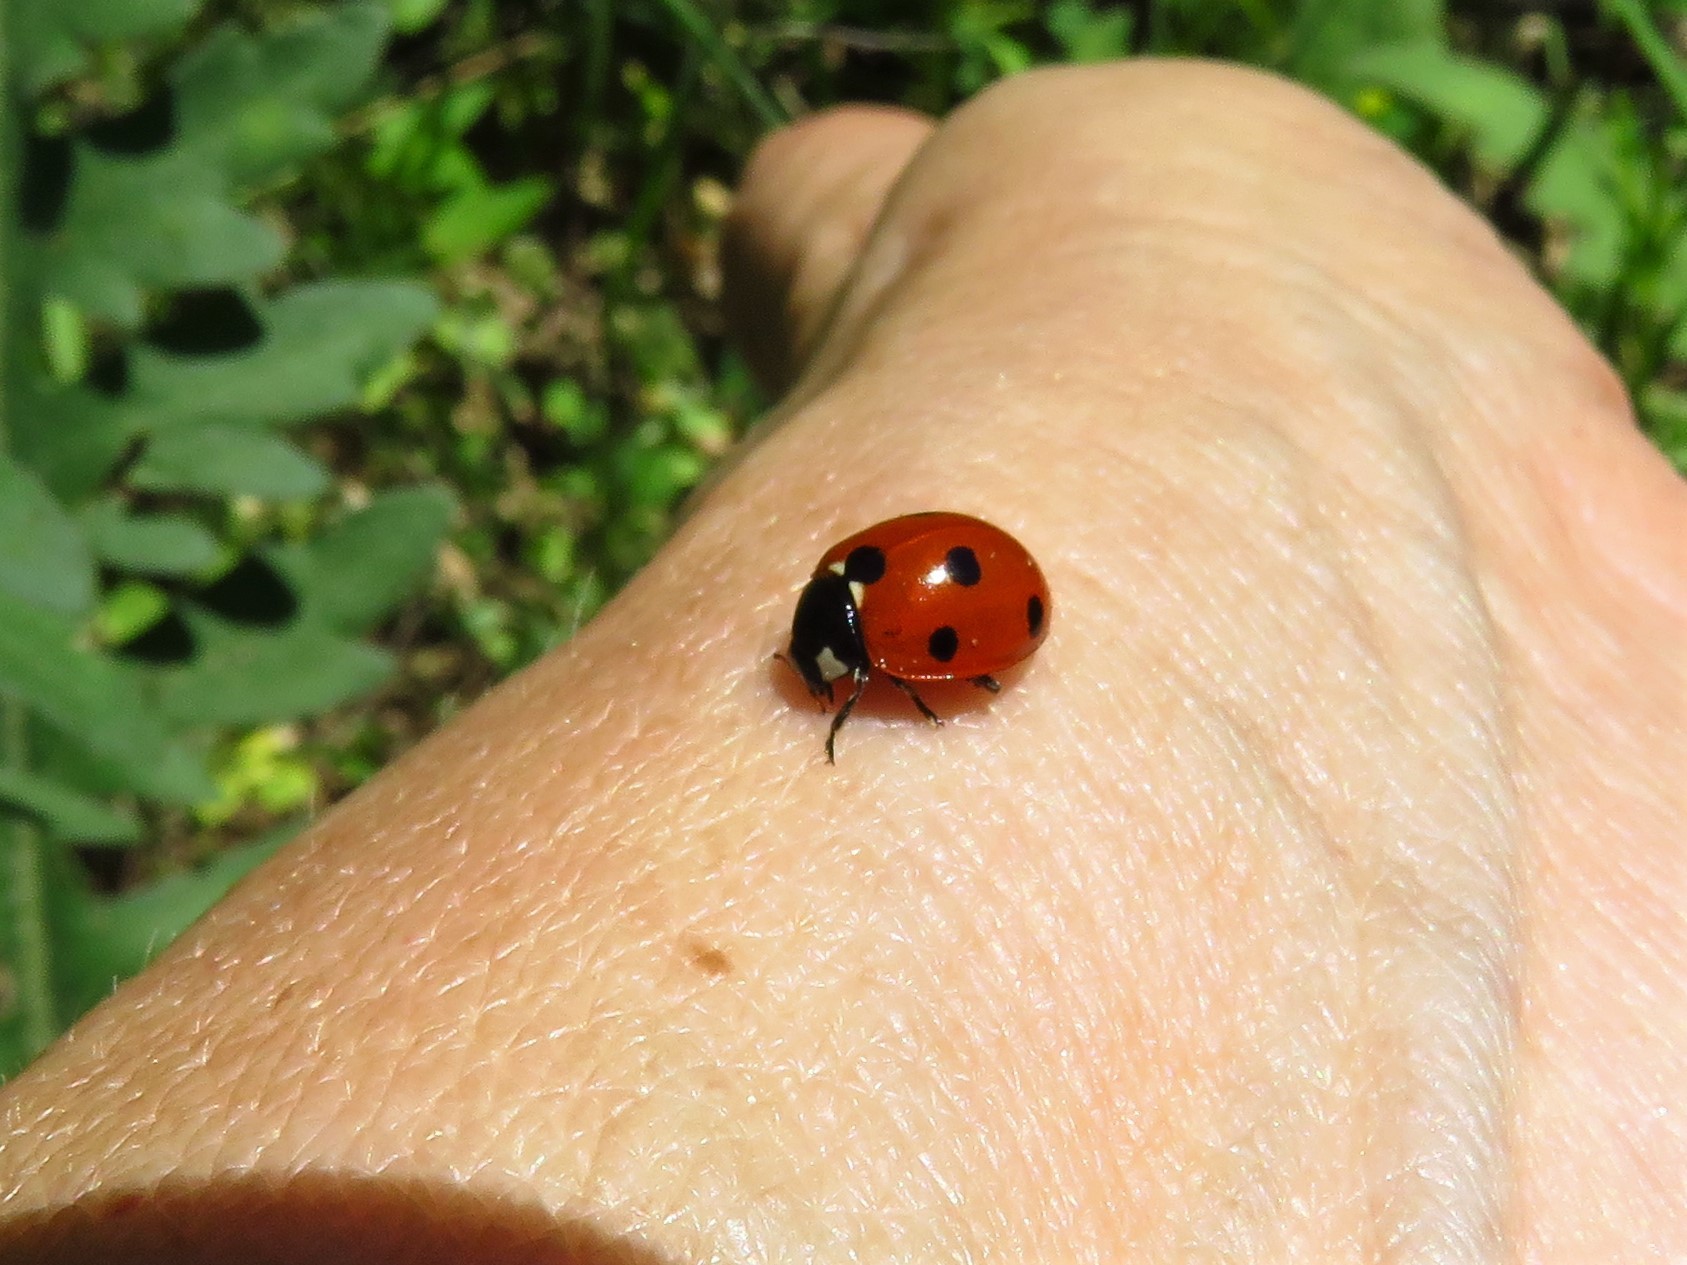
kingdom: Animalia
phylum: Arthropoda
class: Insecta
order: Coleoptera
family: Coccinellidae
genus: Coccinella
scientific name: Coccinella septempunctata
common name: Sevenspotted lady beetle
